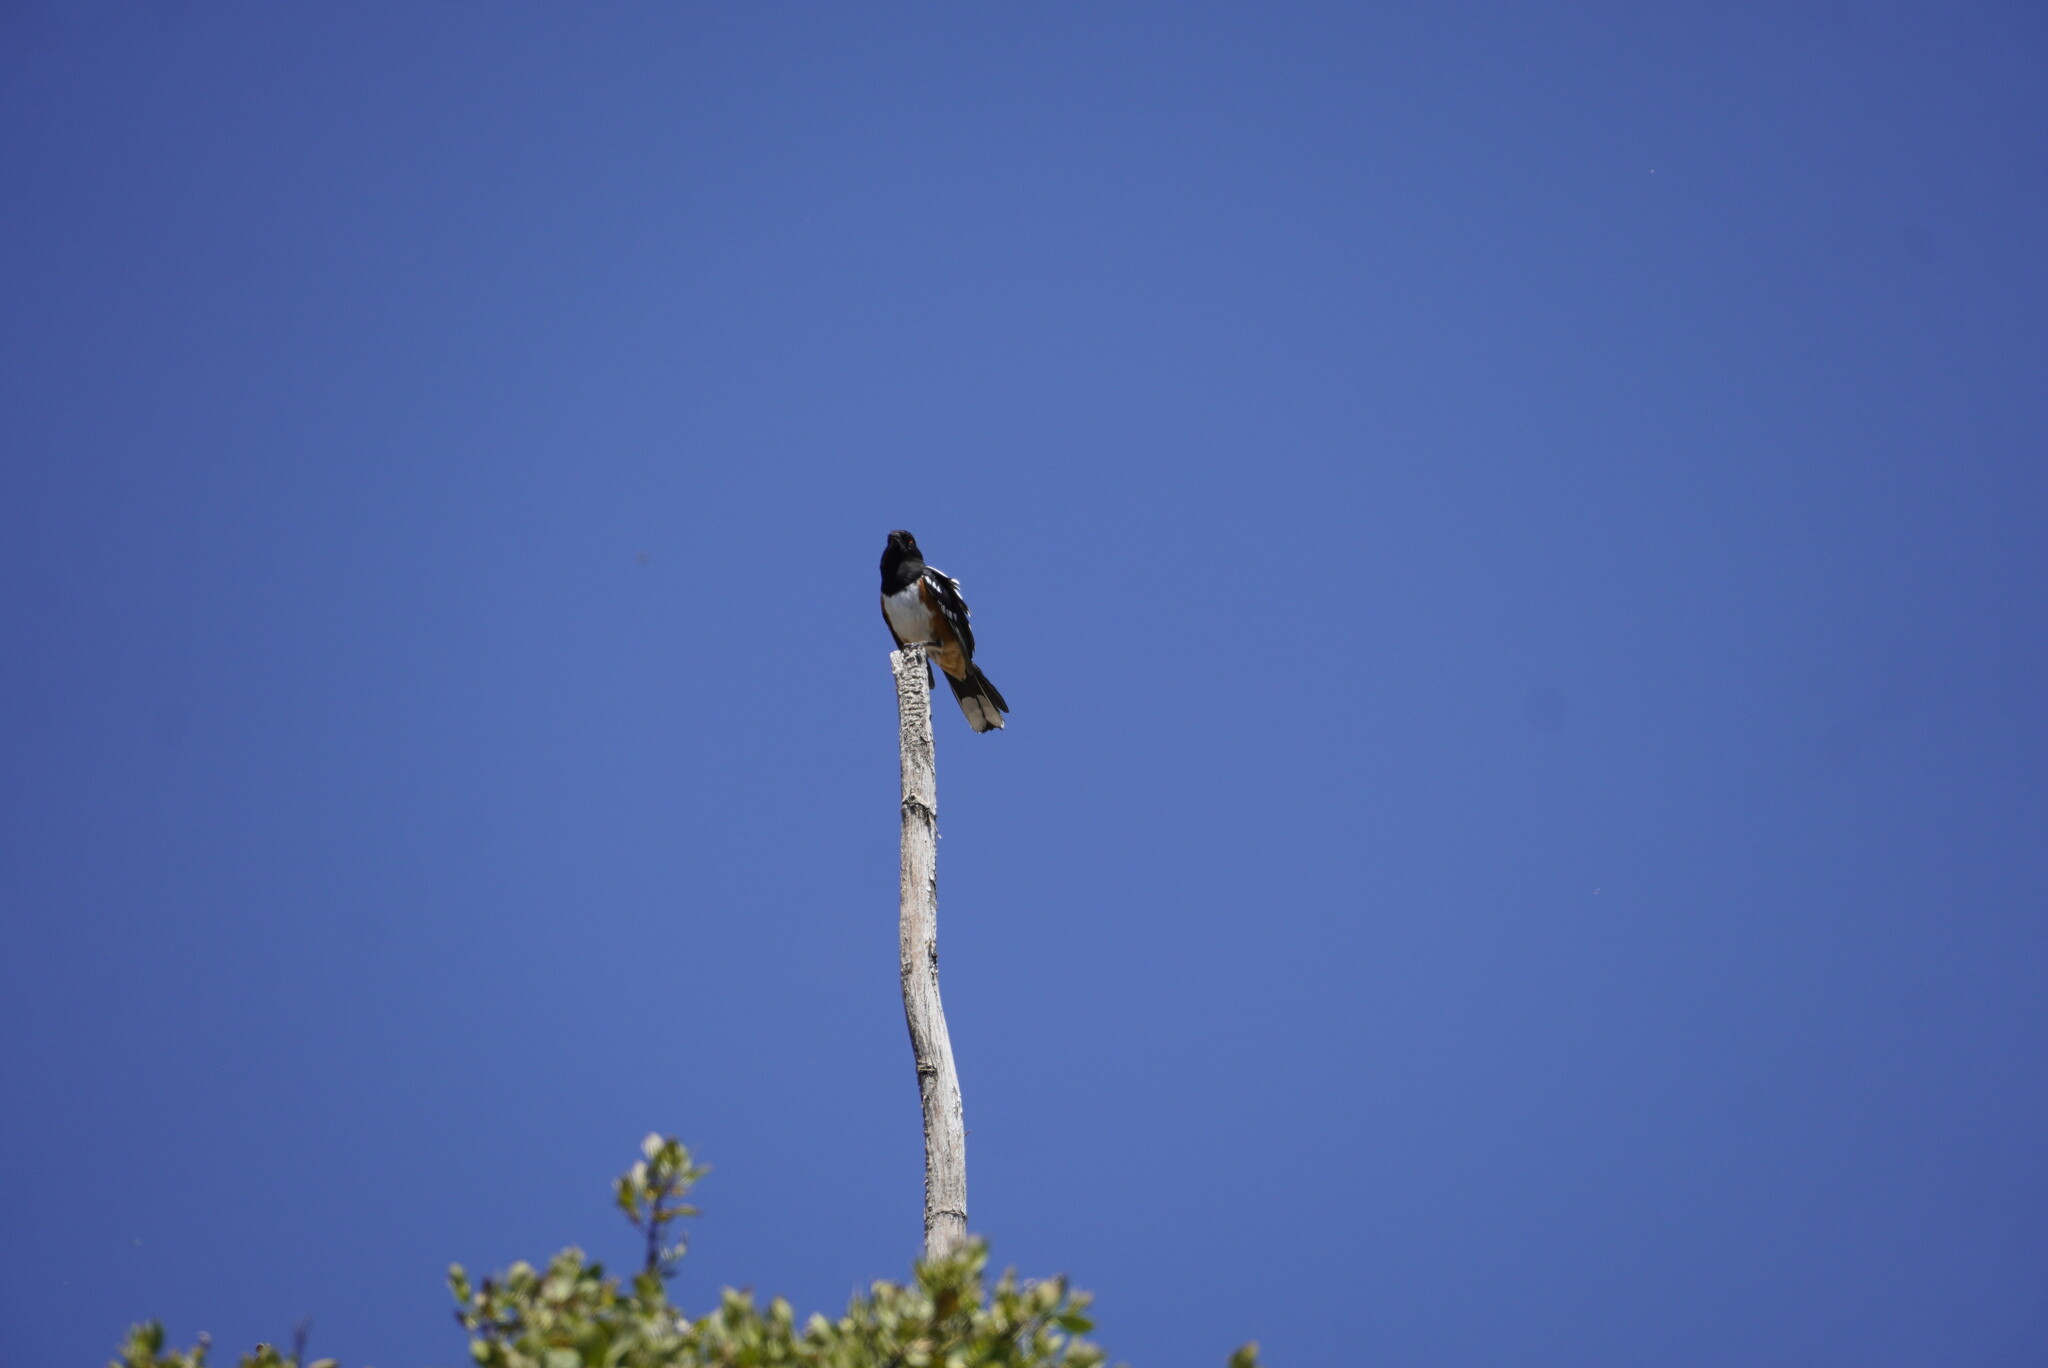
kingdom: Animalia
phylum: Chordata
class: Aves
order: Passeriformes
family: Passerellidae
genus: Pipilo
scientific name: Pipilo maculatus
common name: Spotted towhee
